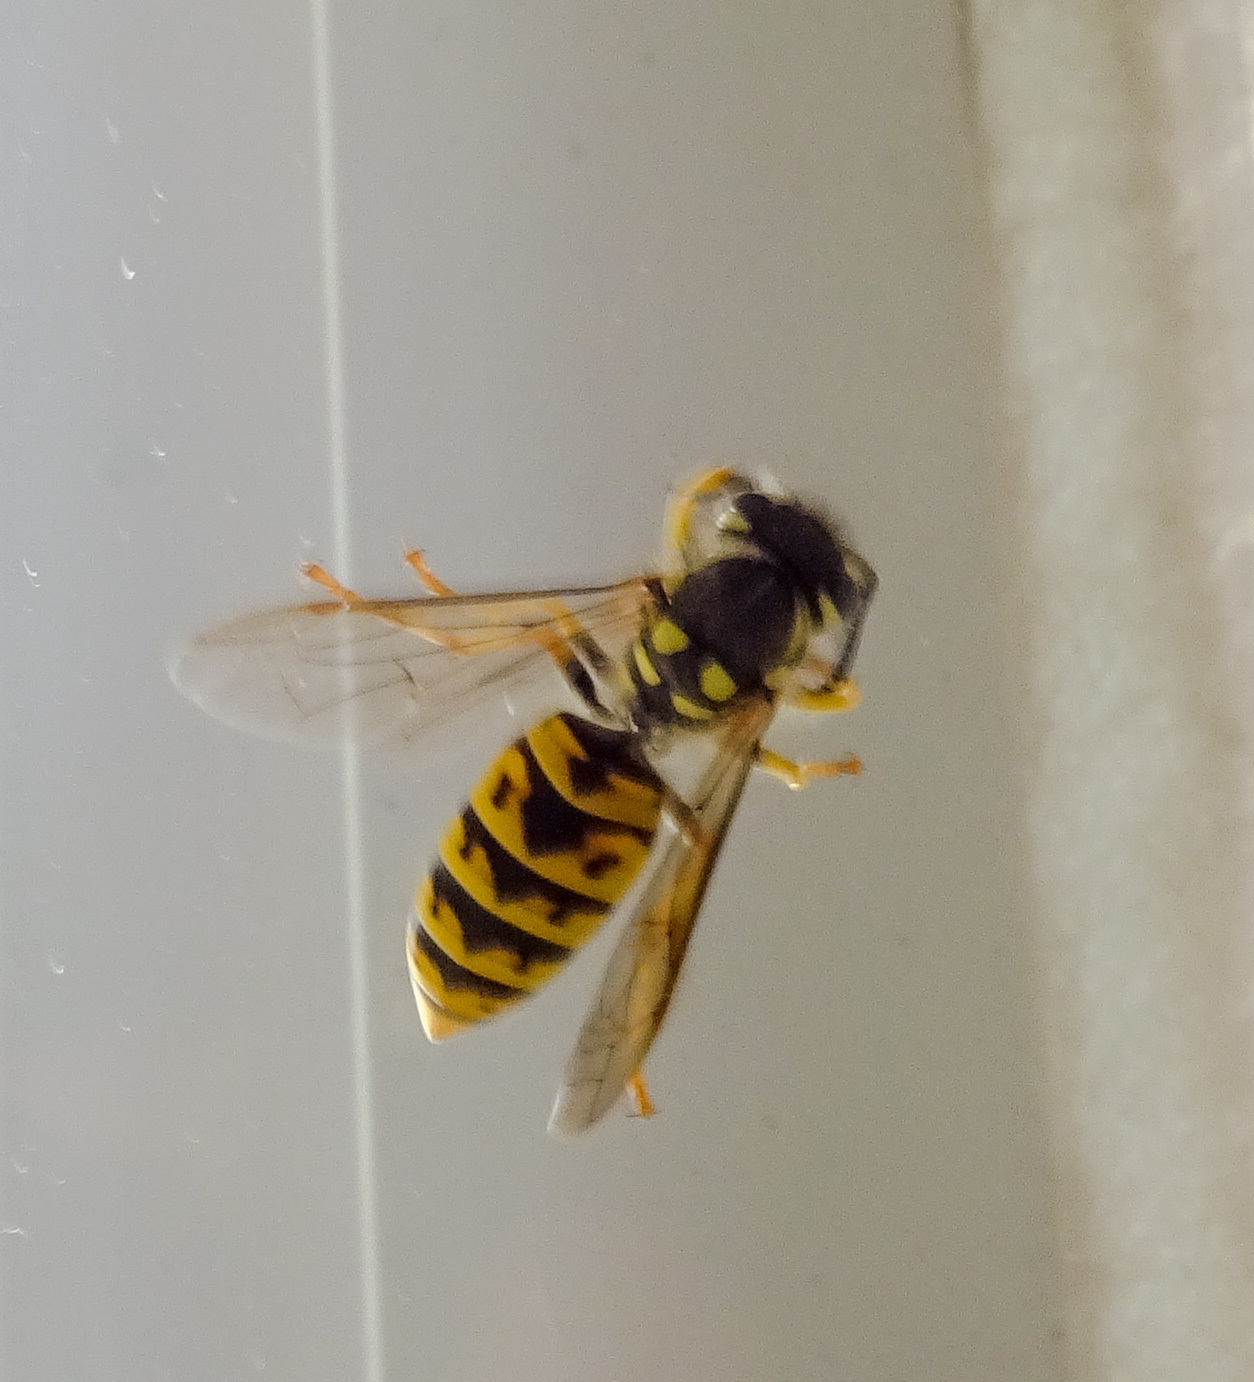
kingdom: Animalia
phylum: Arthropoda
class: Insecta
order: Hymenoptera
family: Vespidae
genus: Vespula
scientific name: Vespula germanica
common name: German wasp
